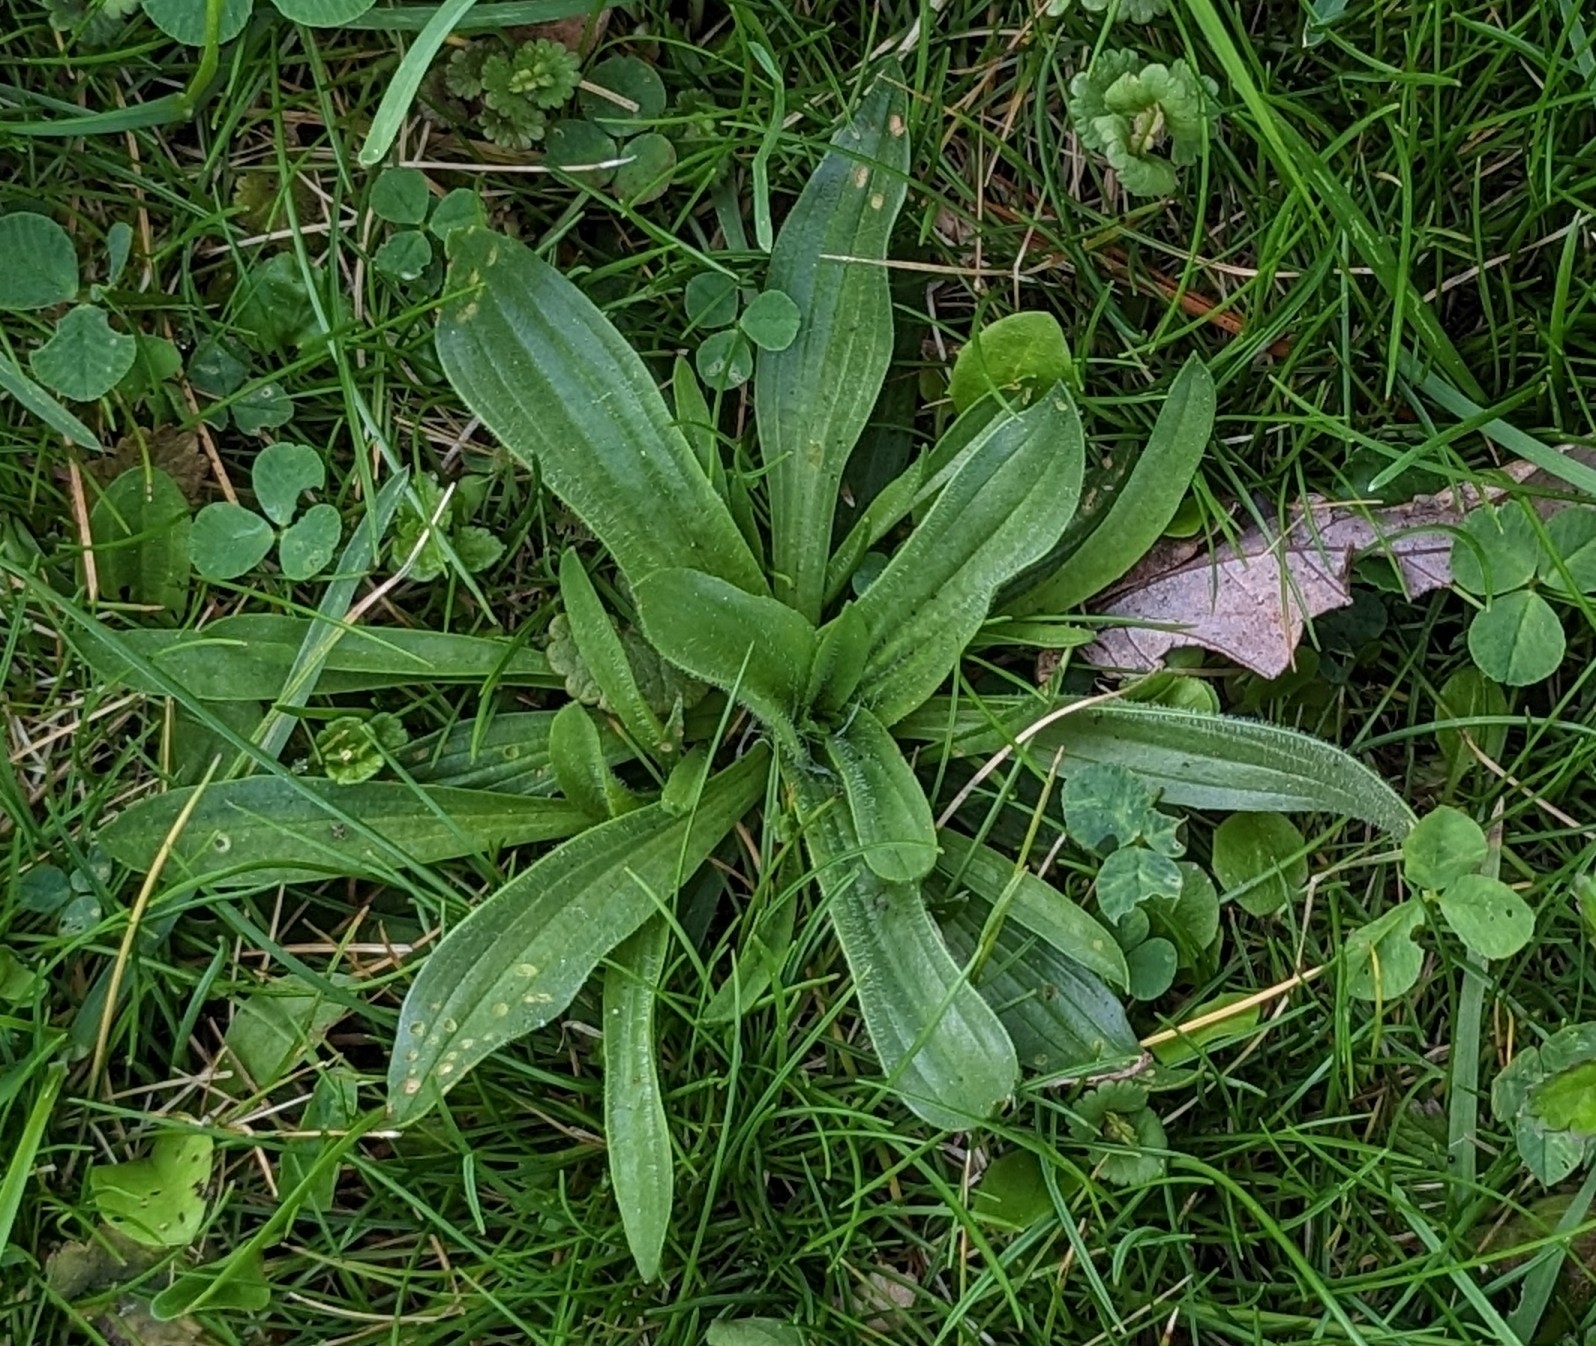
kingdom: Plantae
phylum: Tracheophyta
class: Magnoliopsida
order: Lamiales
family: Plantaginaceae
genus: Plantago
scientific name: Plantago lanceolata
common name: Ribwort plantain
